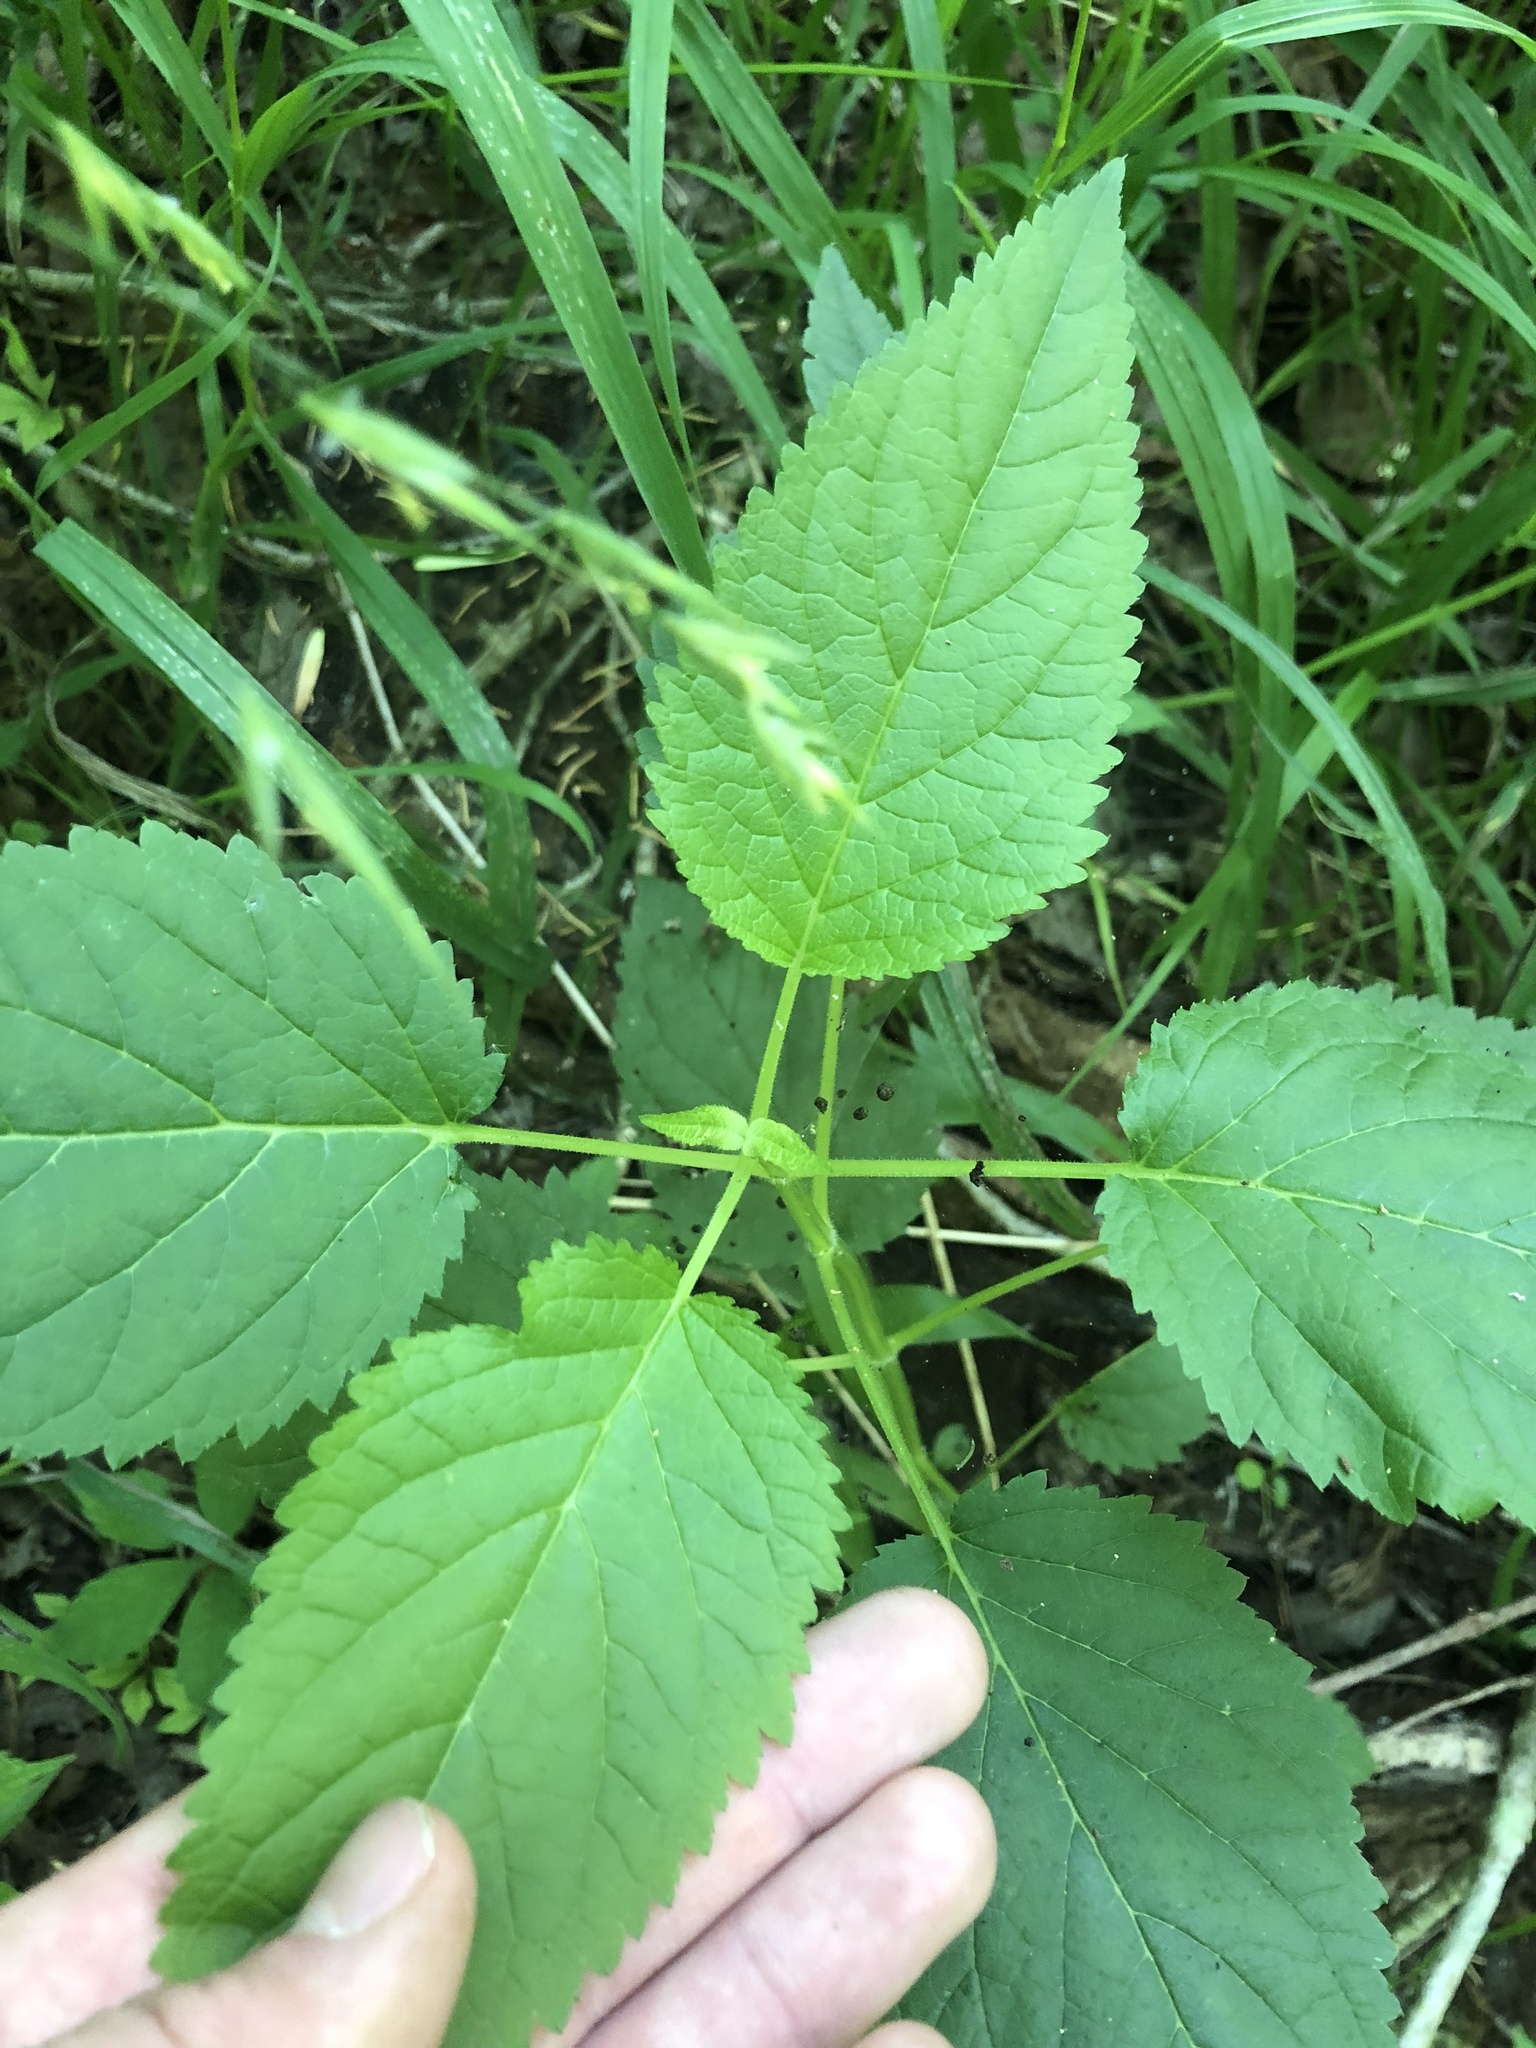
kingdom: Plantae
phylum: Tracheophyta
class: Magnoliopsida
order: Lamiales
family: Scrophulariaceae
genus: Scrophularia
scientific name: Scrophularia marilandica
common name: Eastern figwort
